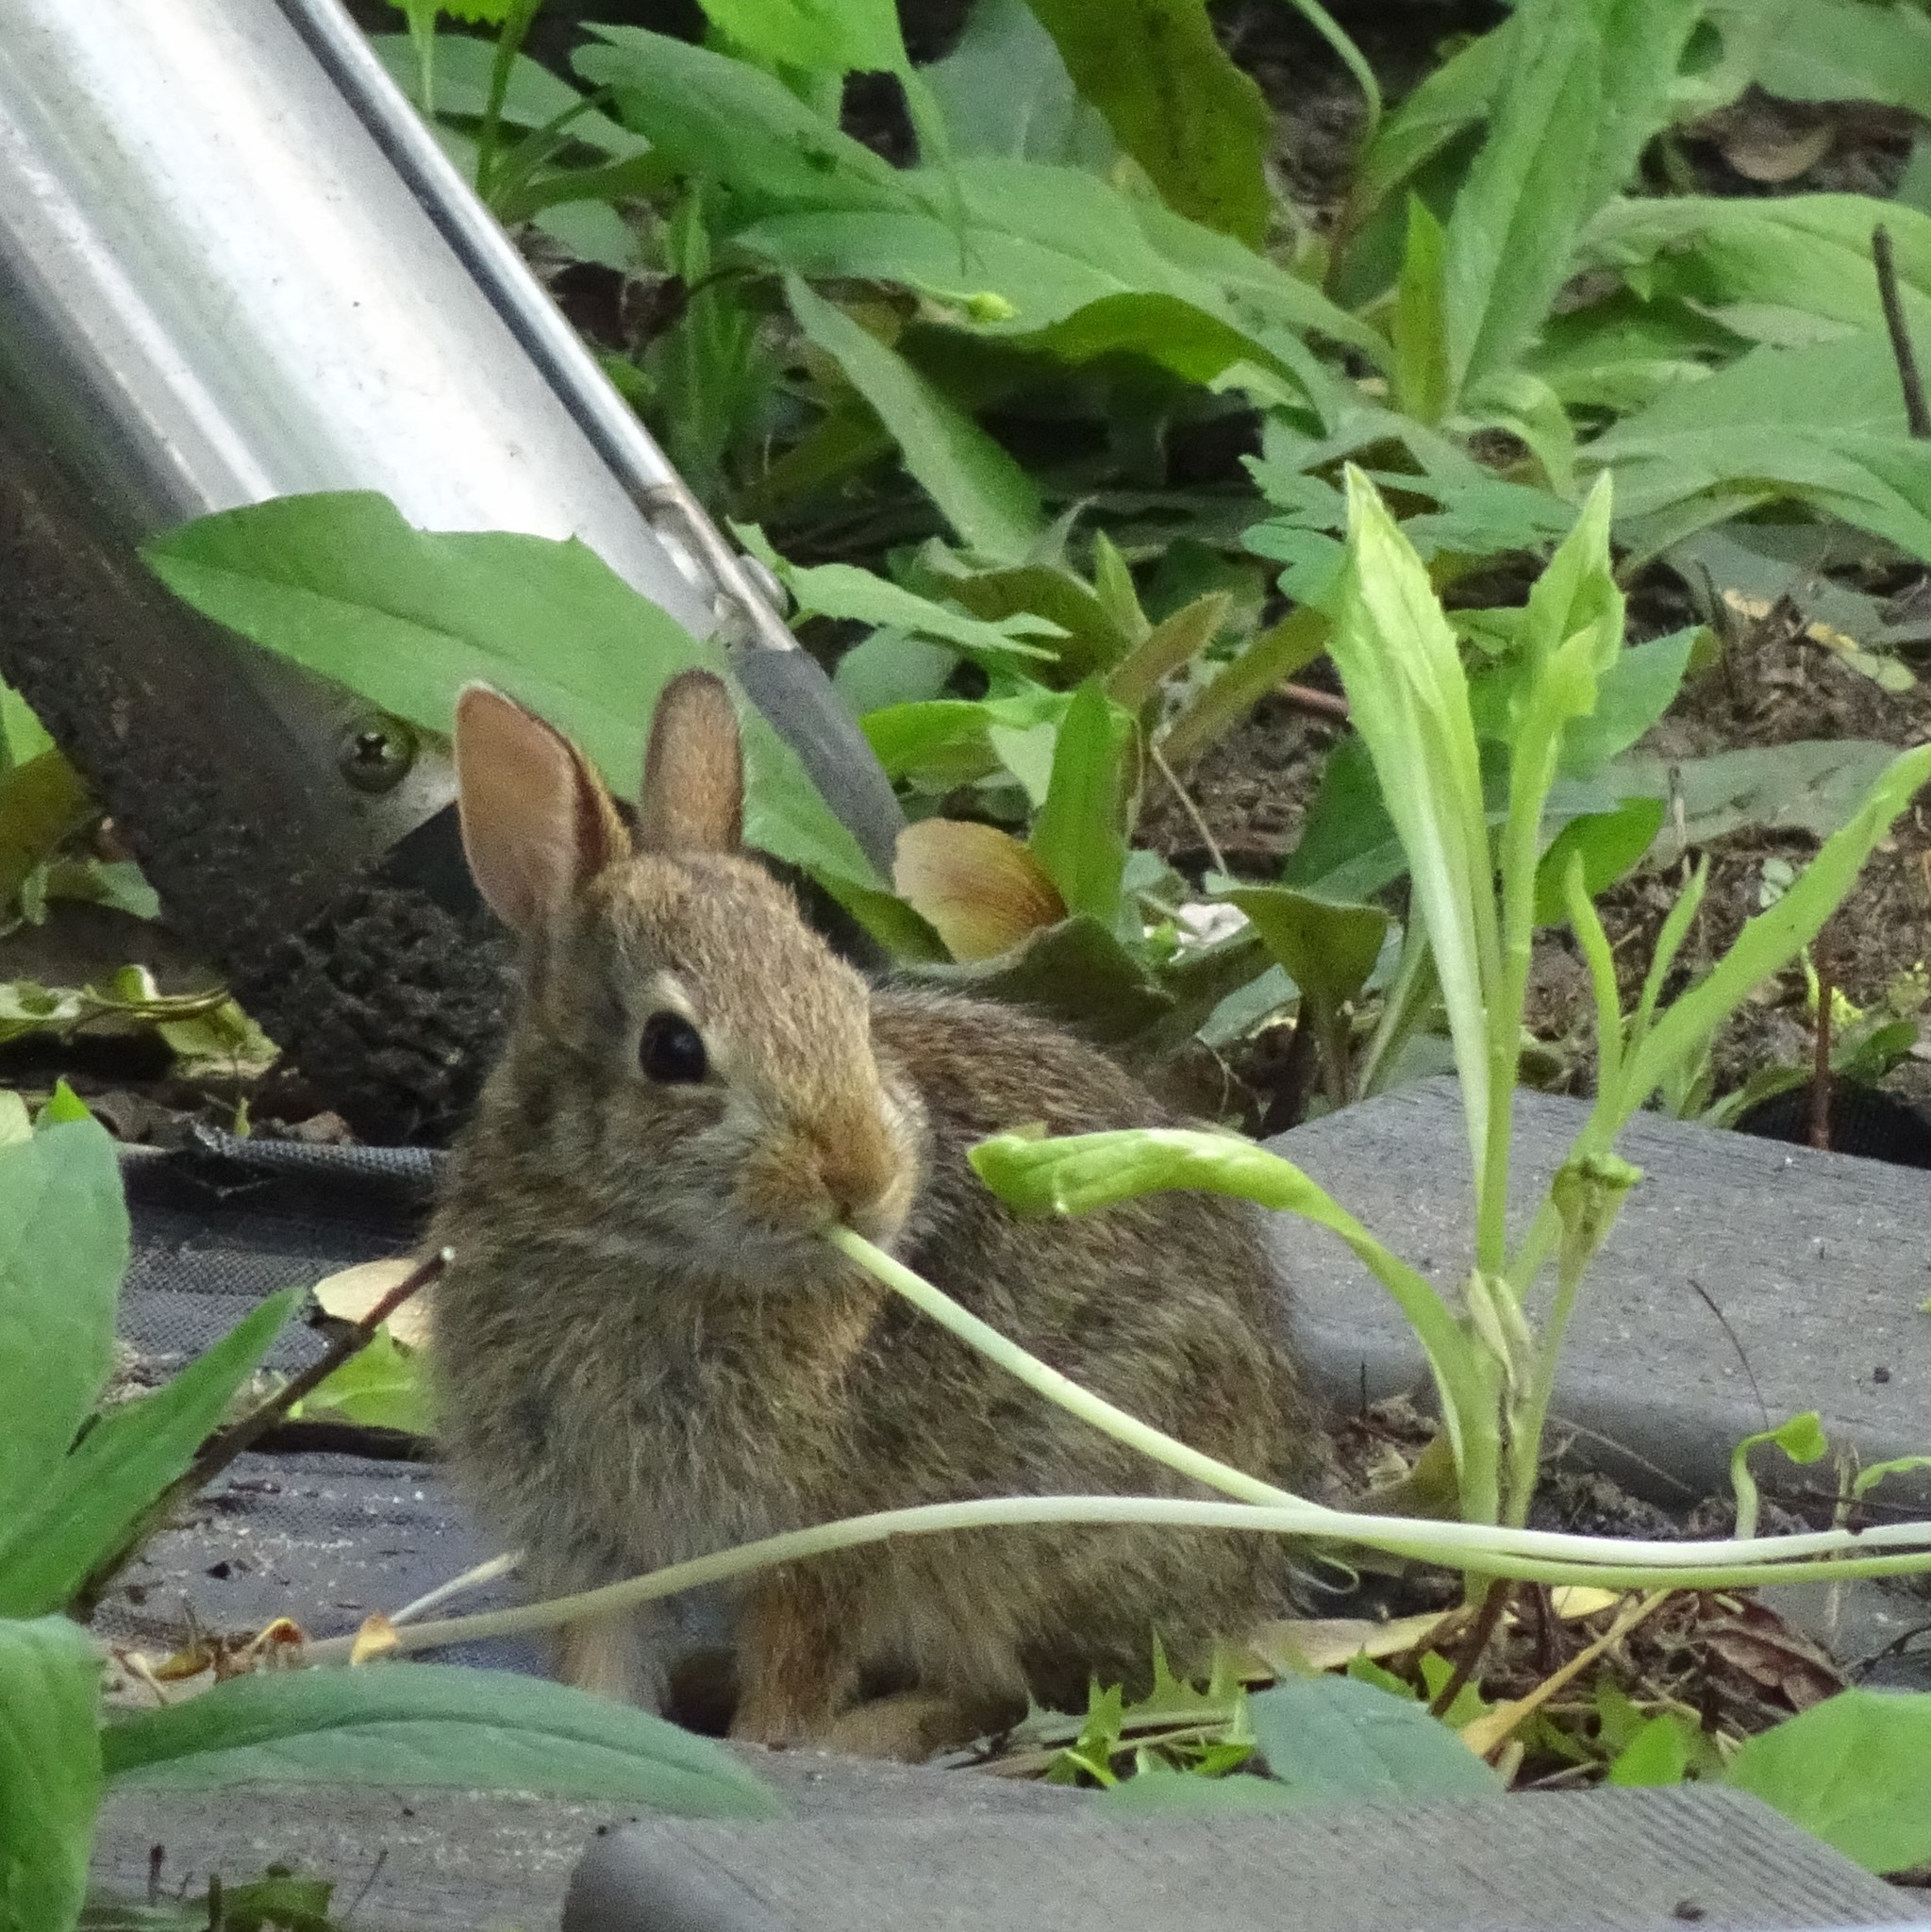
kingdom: Animalia
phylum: Chordata
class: Mammalia
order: Lagomorpha
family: Leporidae
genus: Sylvilagus
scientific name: Sylvilagus floridanus
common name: Eastern cottontail
